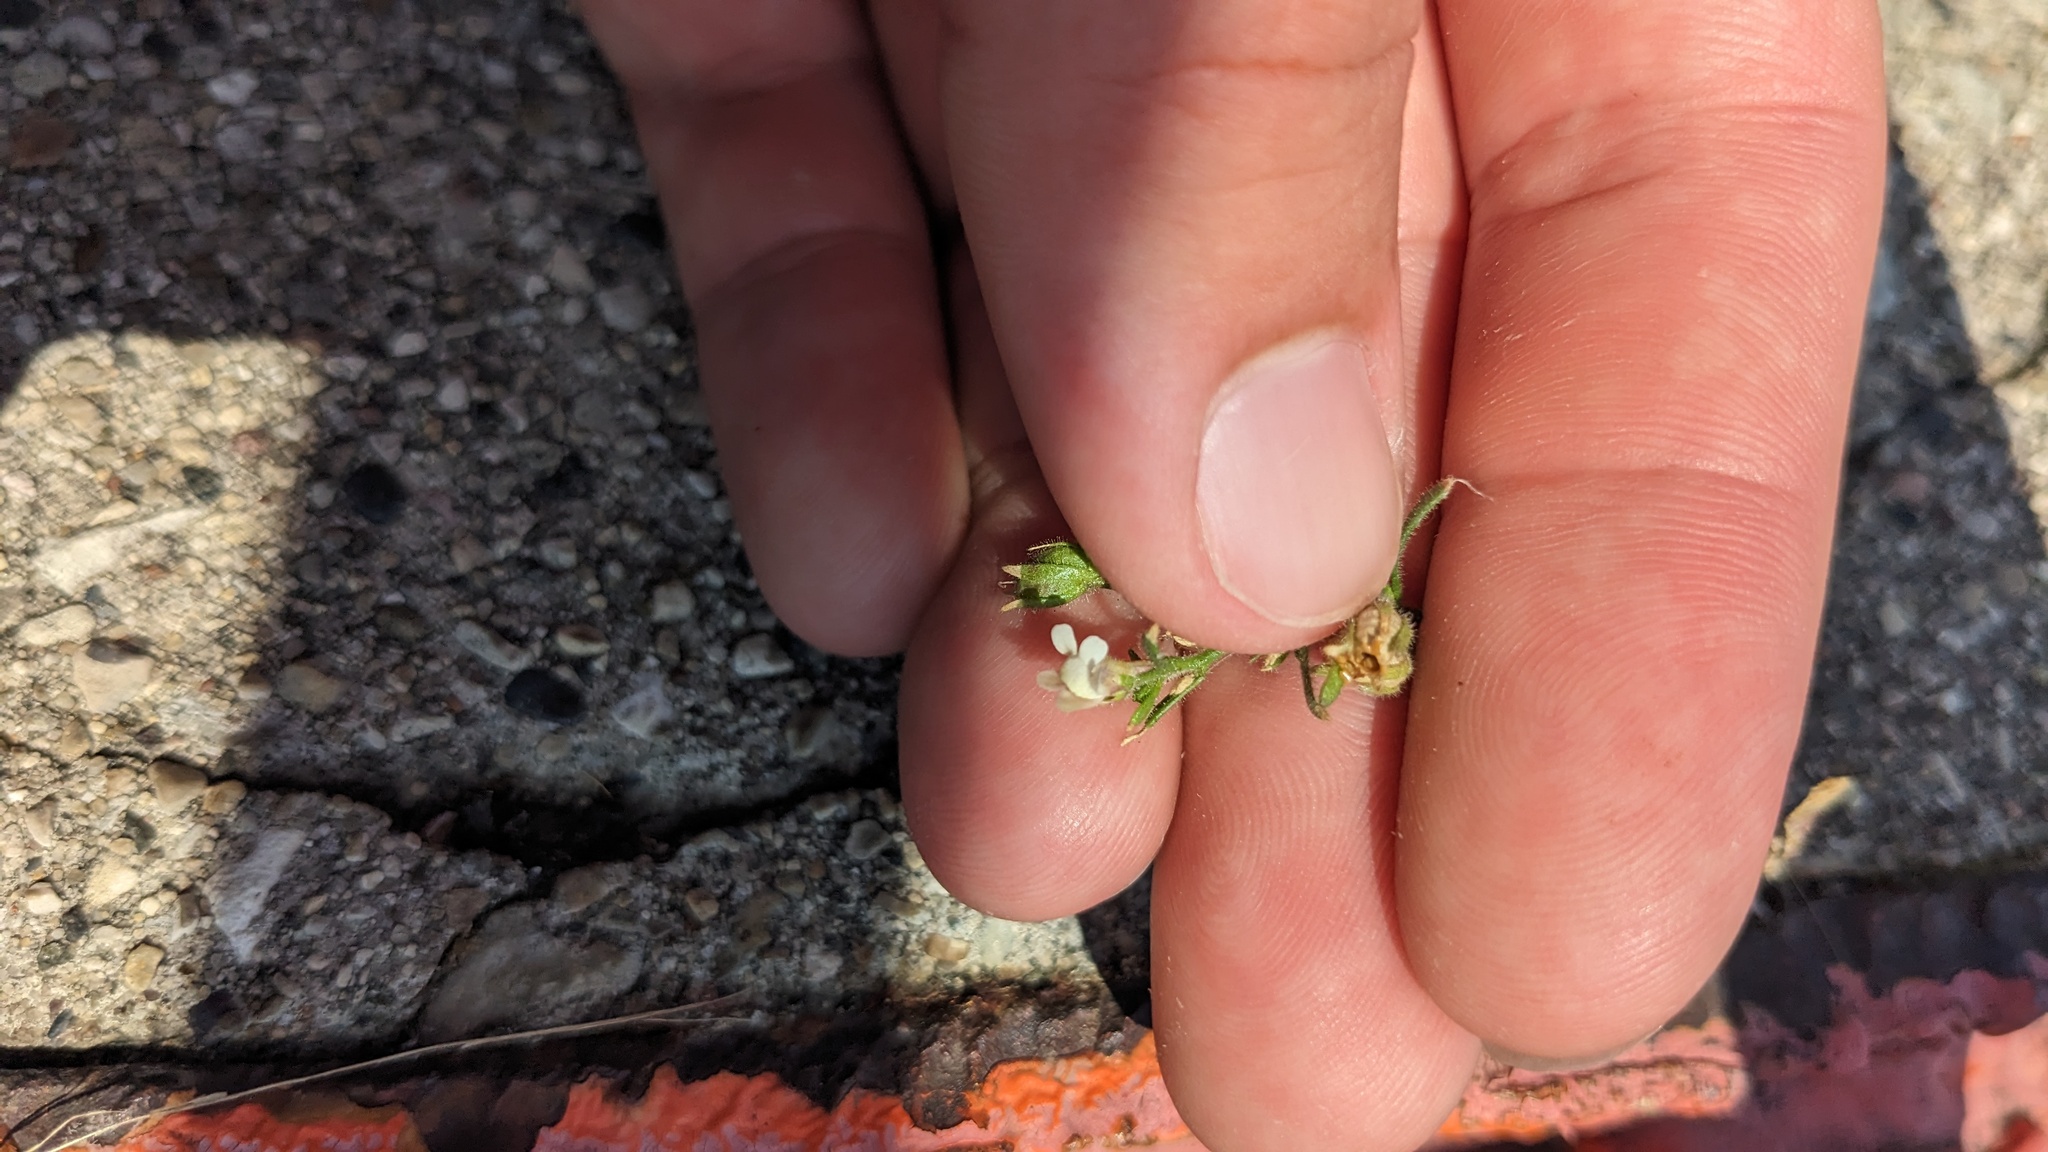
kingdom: Plantae
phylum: Tracheophyta
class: Magnoliopsida
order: Lamiales
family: Plantaginaceae
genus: Chaenorhinum
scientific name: Chaenorhinum minus
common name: Dwarf snapdragon
